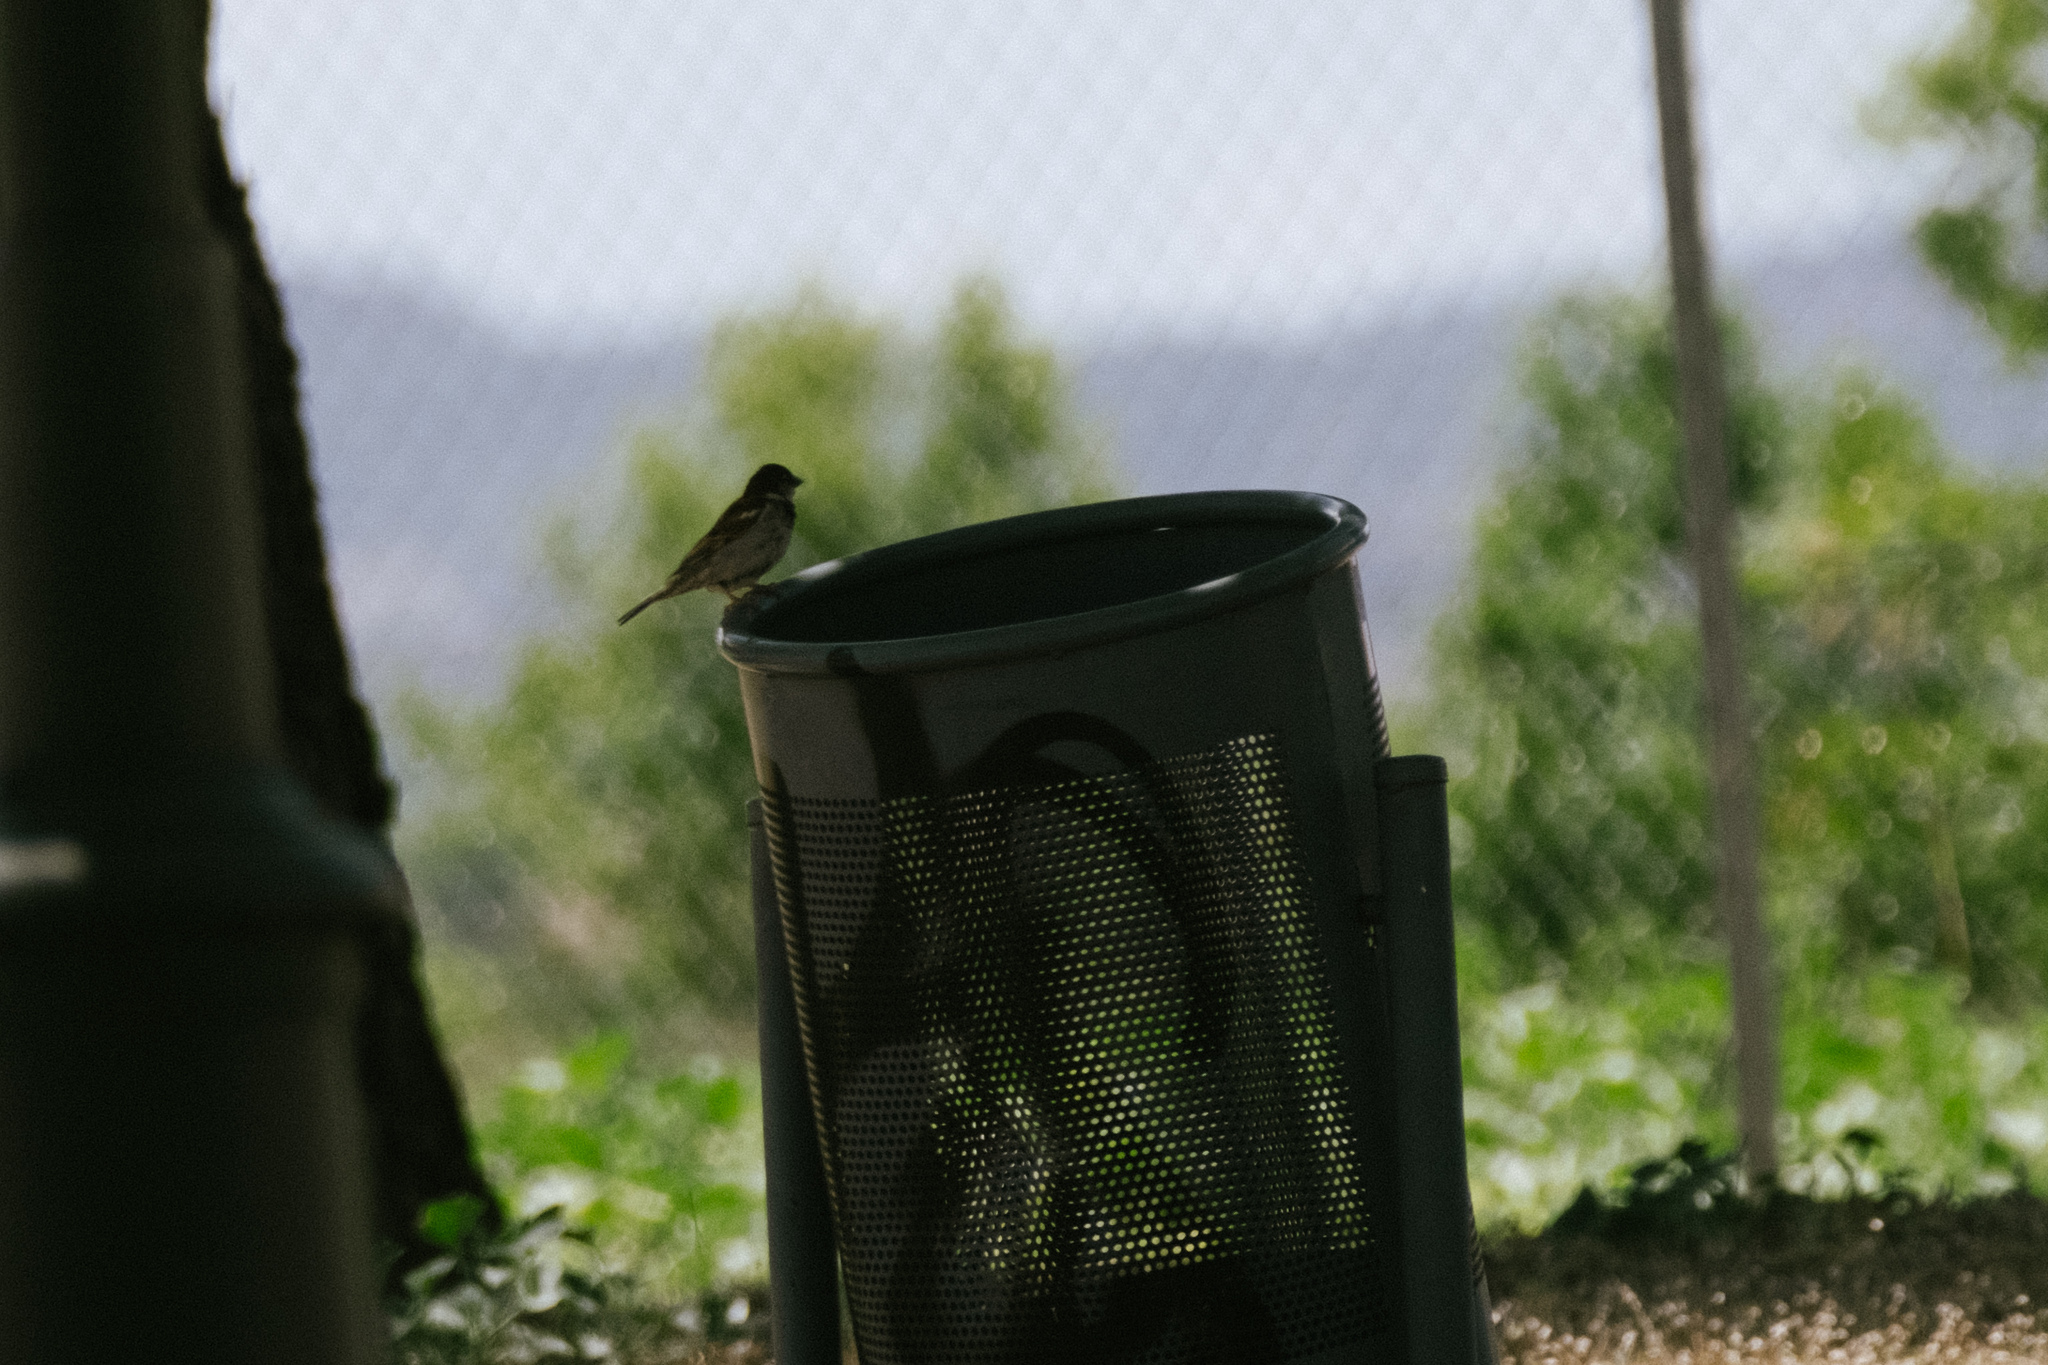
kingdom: Animalia
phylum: Chordata
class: Aves
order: Passeriformes
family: Passeridae
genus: Passer
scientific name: Passer domesticus
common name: House sparrow
